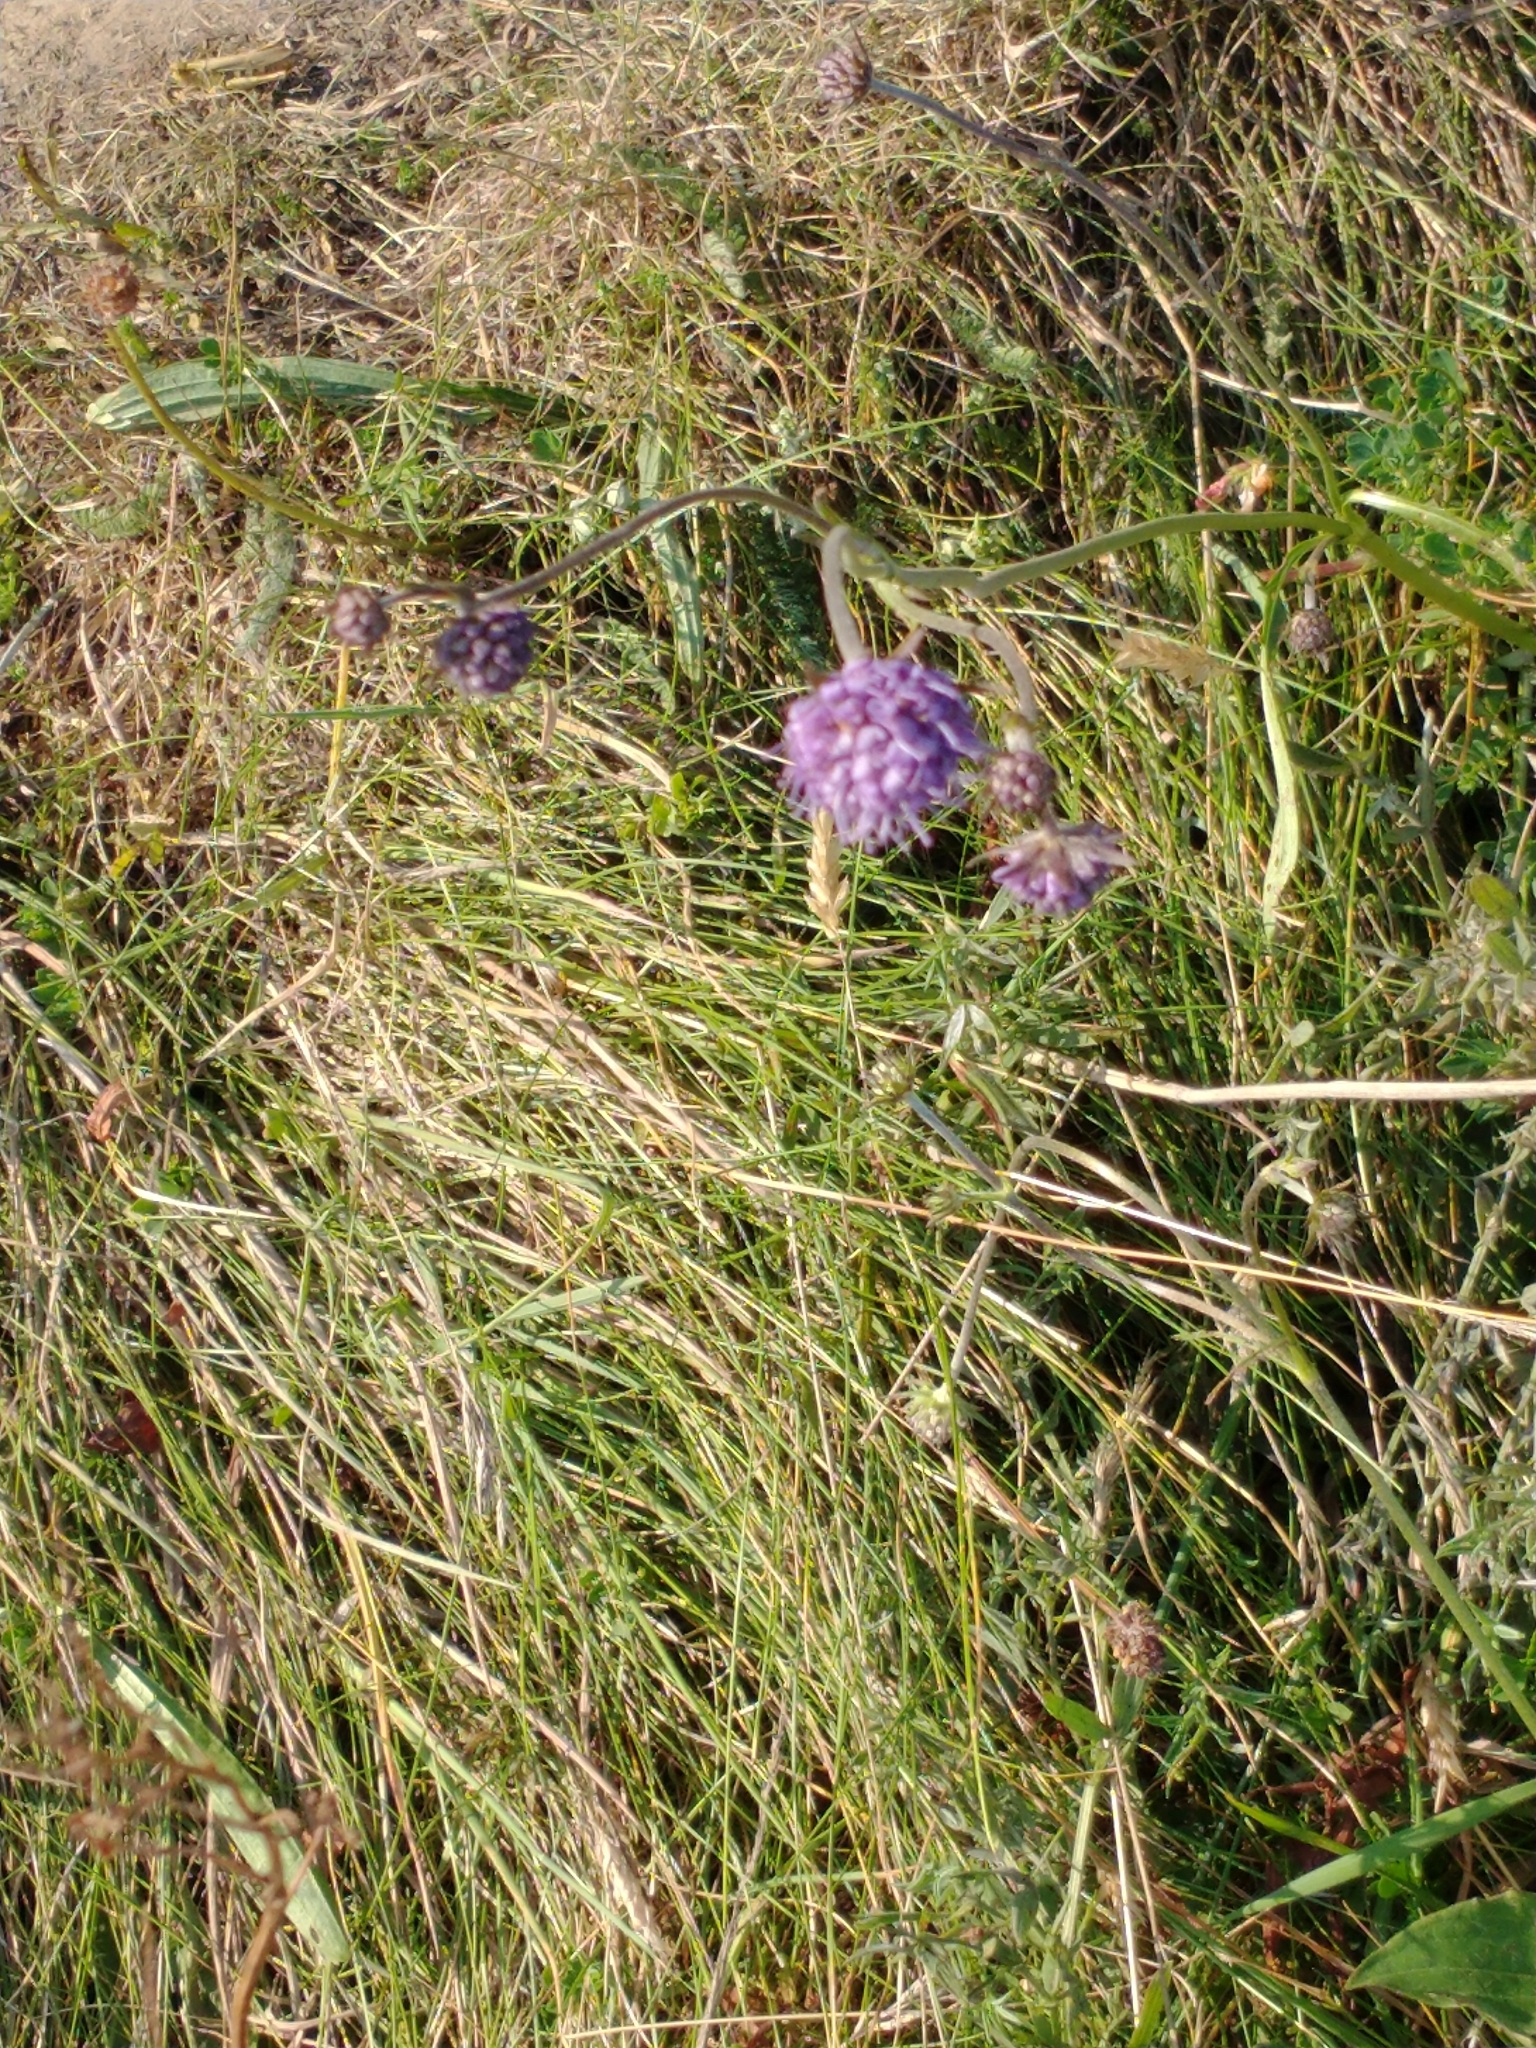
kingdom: Plantae
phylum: Tracheophyta
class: Magnoliopsida
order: Dipsacales
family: Caprifoliaceae
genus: Succisa
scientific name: Succisa pratensis
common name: Devil's-bit
